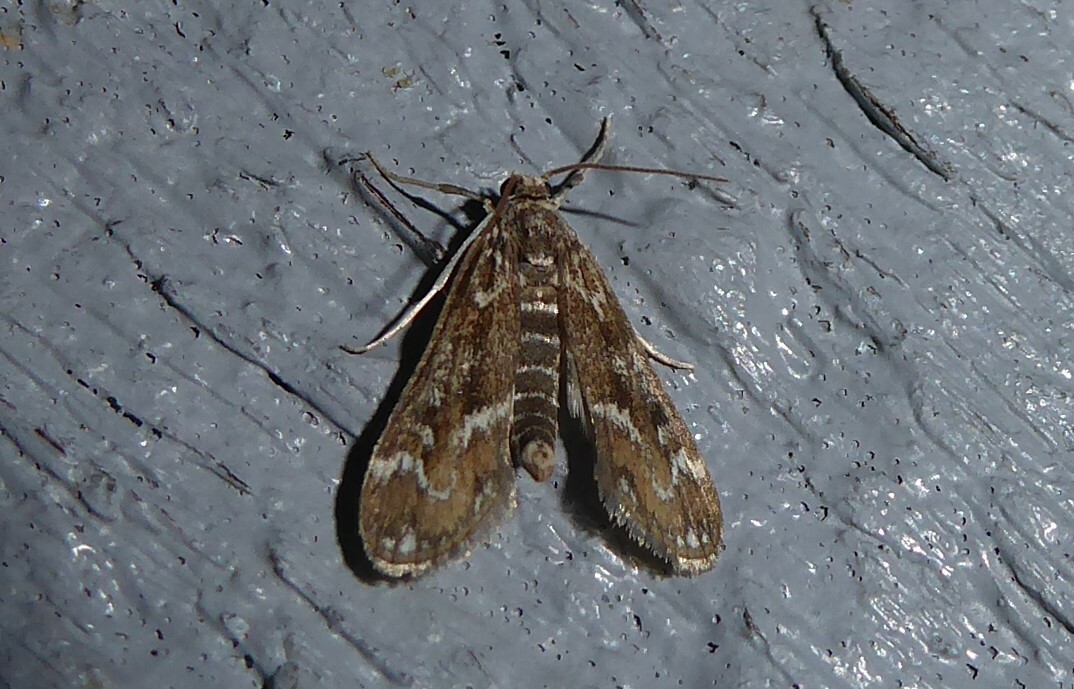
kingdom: Animalia
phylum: Arthropoda
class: Insecta
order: Lepidoptera
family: Crambidae
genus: Hygraula
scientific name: Hygraula nitens
